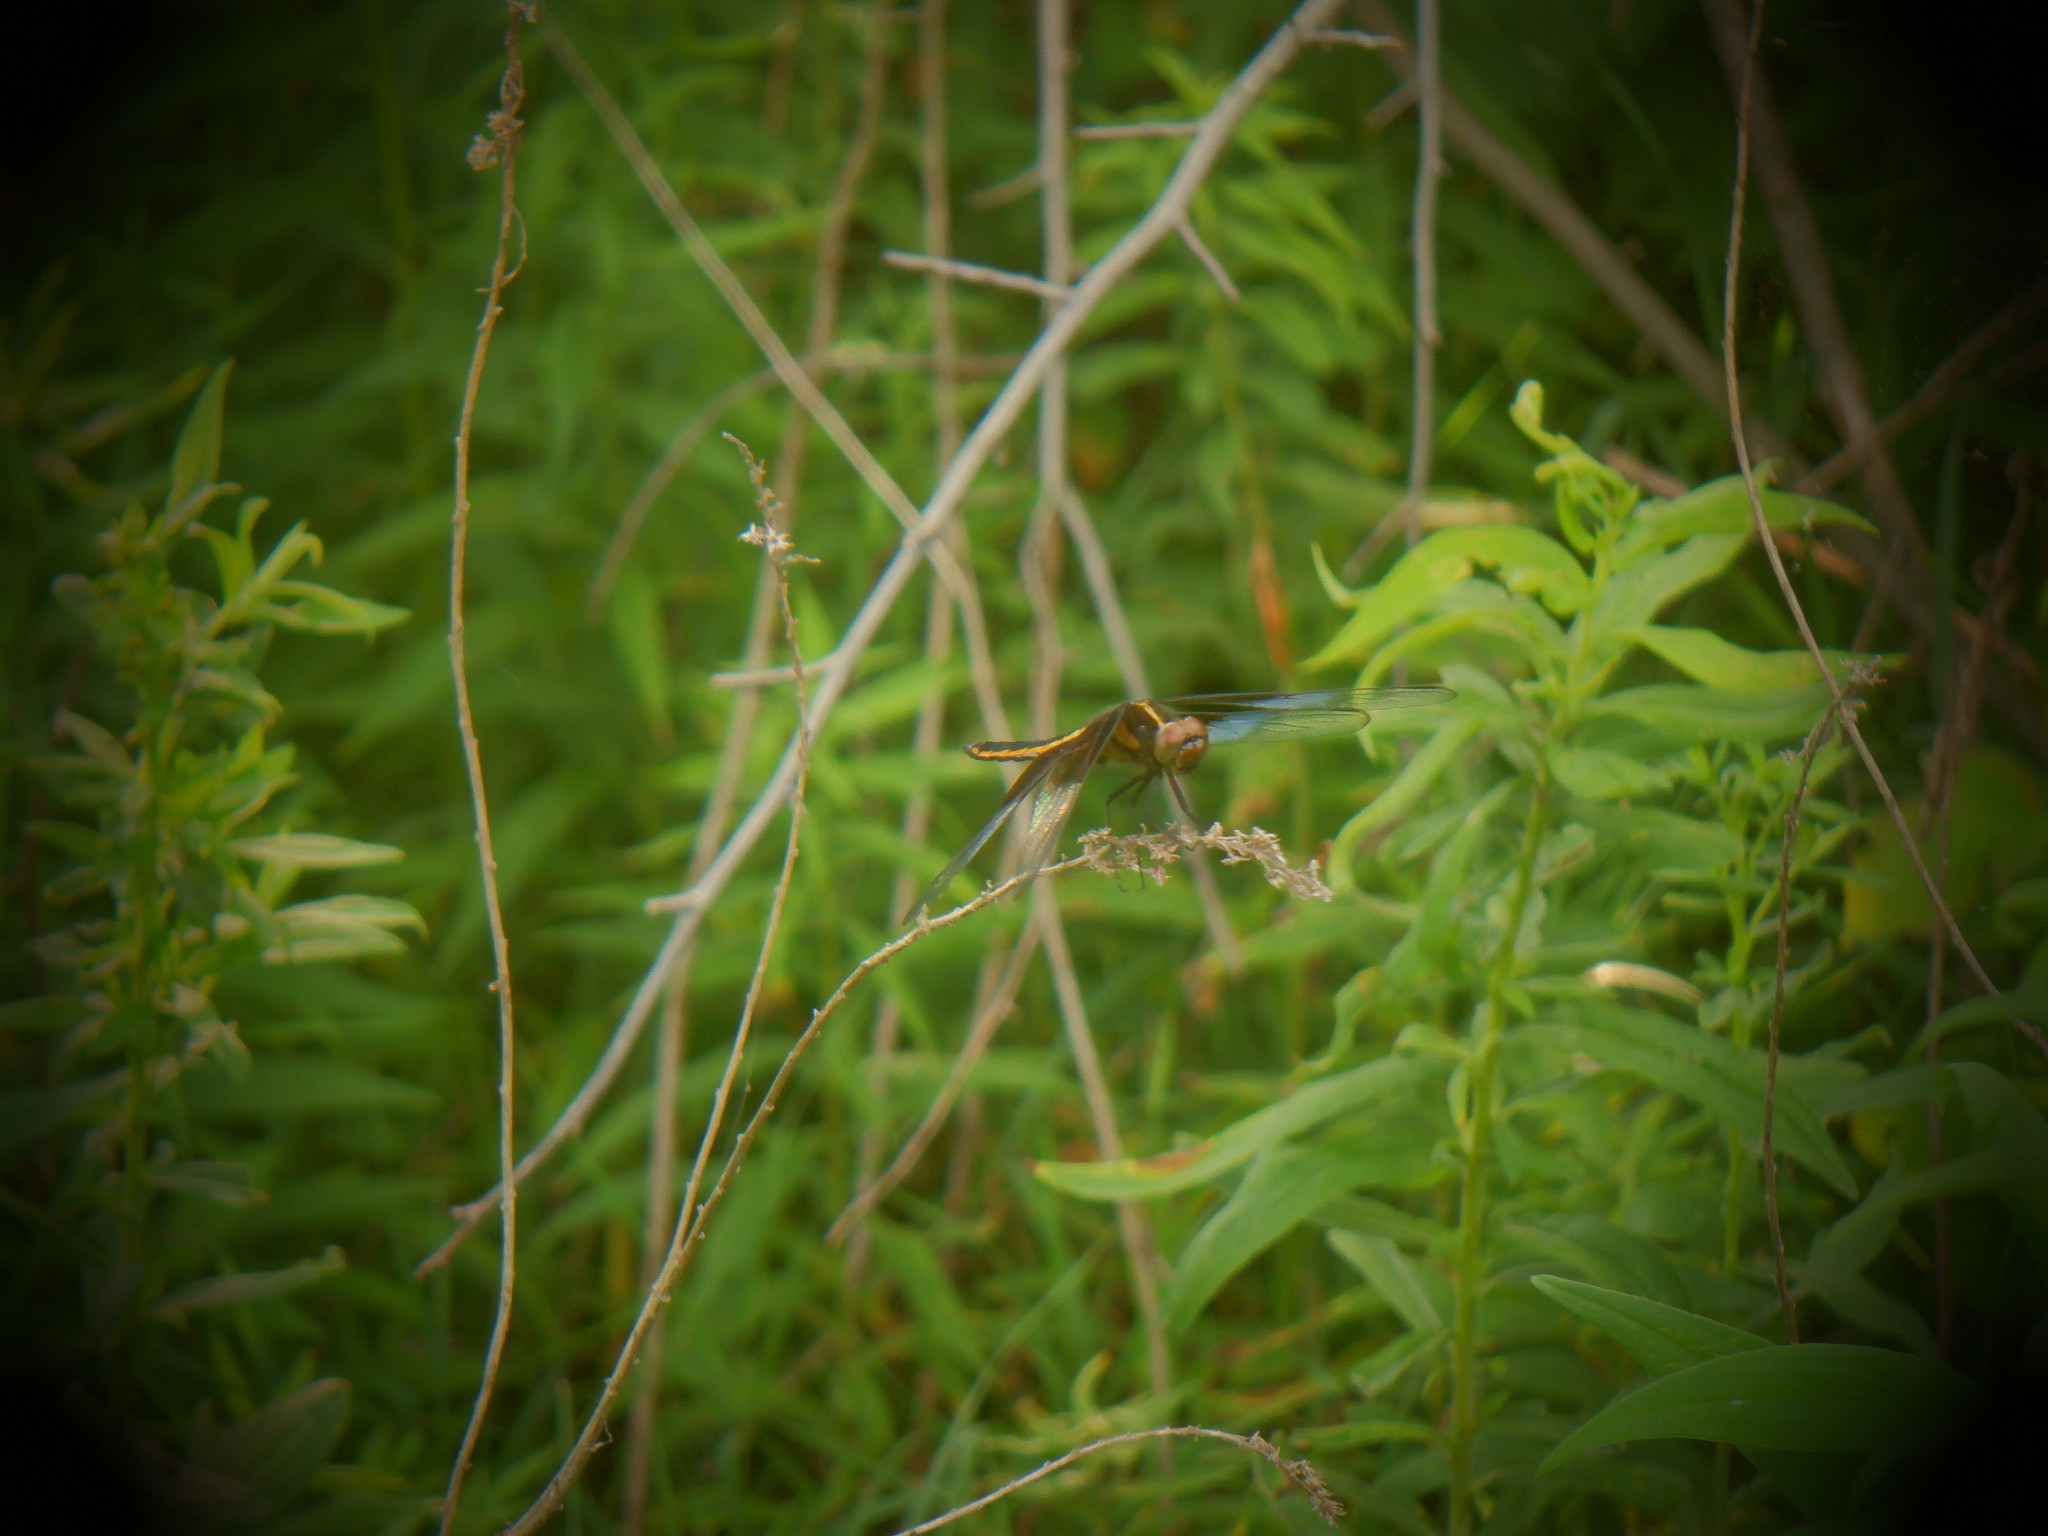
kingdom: Animalia
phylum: Arthropoda
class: Insecta
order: Odonata
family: Libellulidae
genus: Libellula
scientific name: Libellula luctuosa
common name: Widow skimmer
